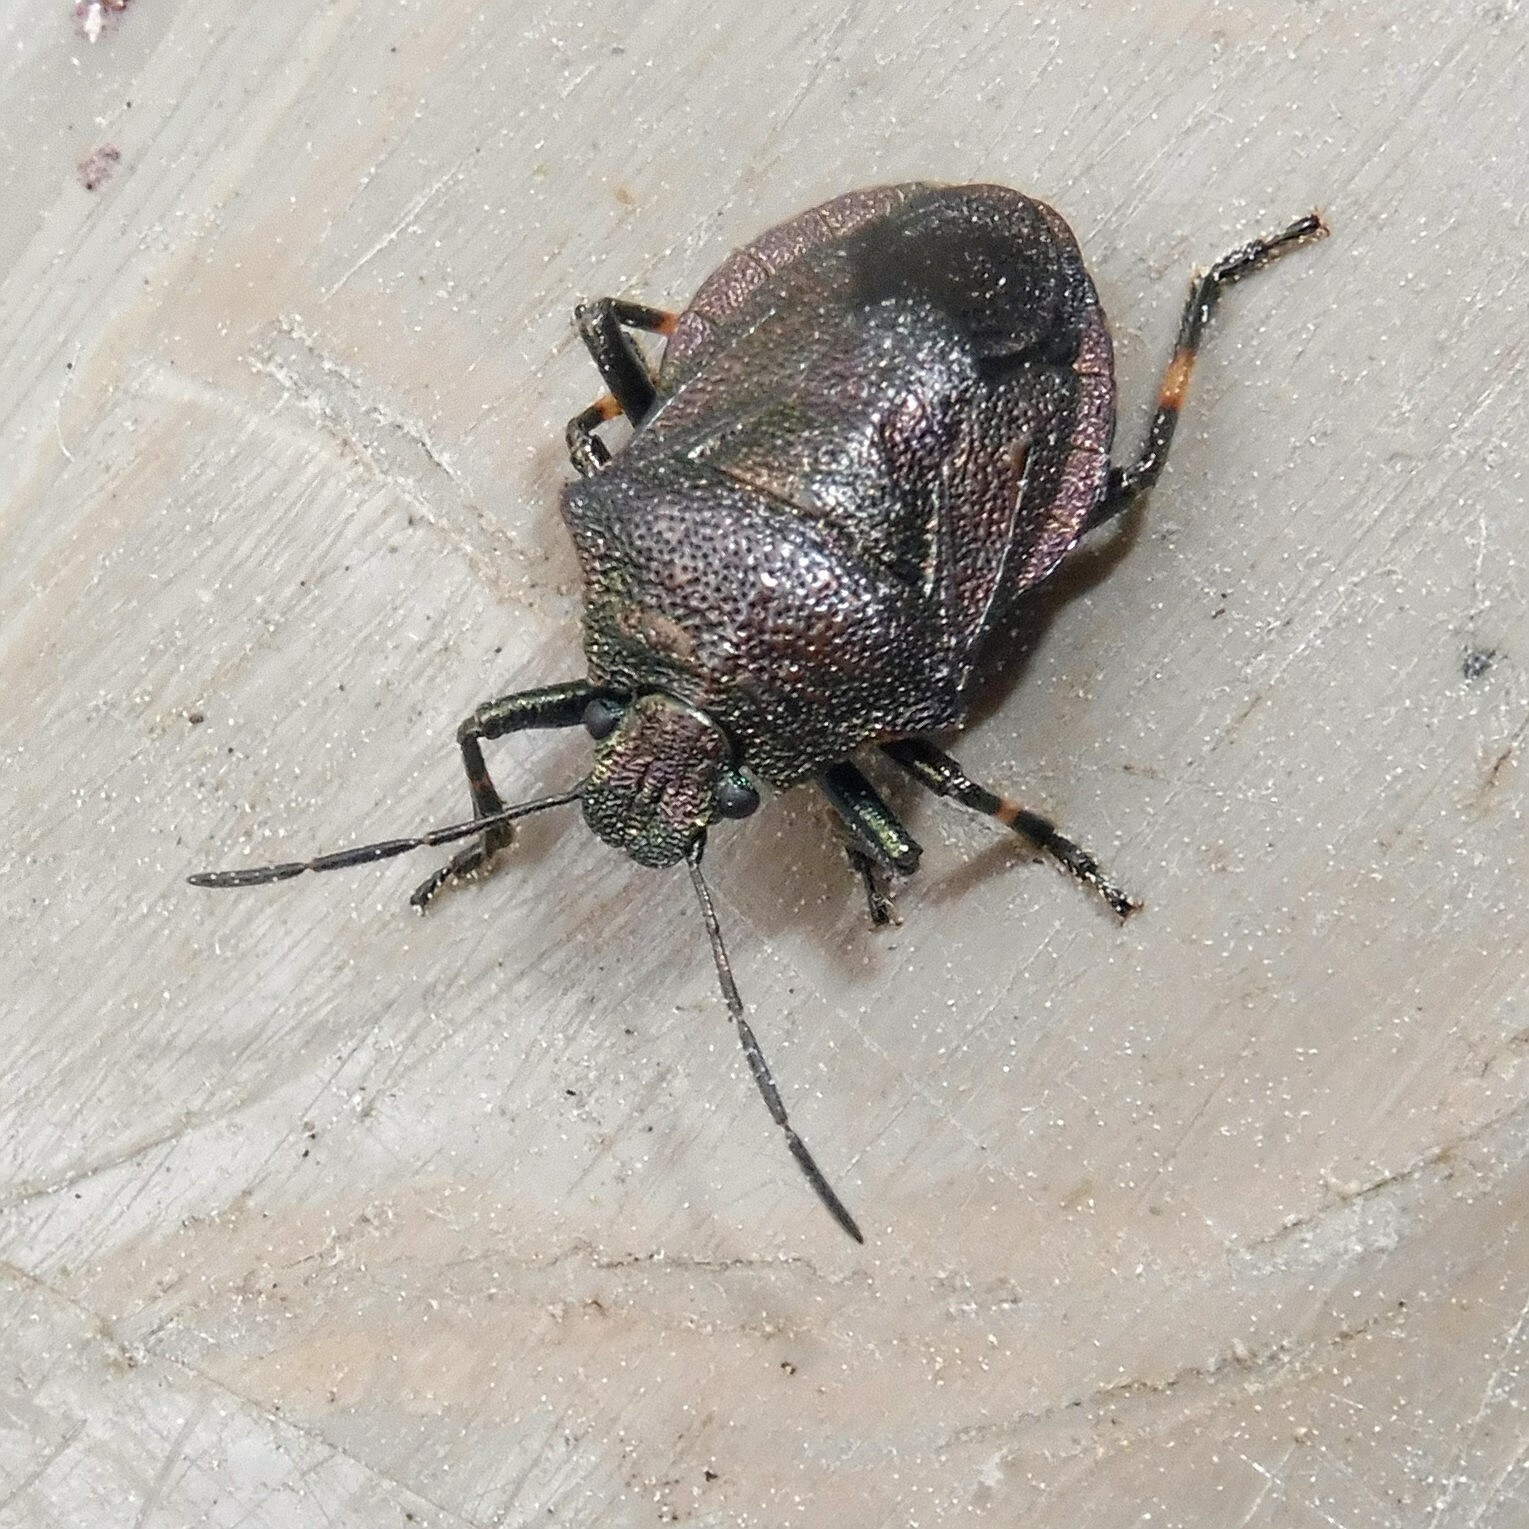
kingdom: Animalia
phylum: Arthropoda
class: Insecta
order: Hemiptera
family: Pentatomidae
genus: Rhacognathus
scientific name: Rhacognathus punctatus
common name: Heather bug
